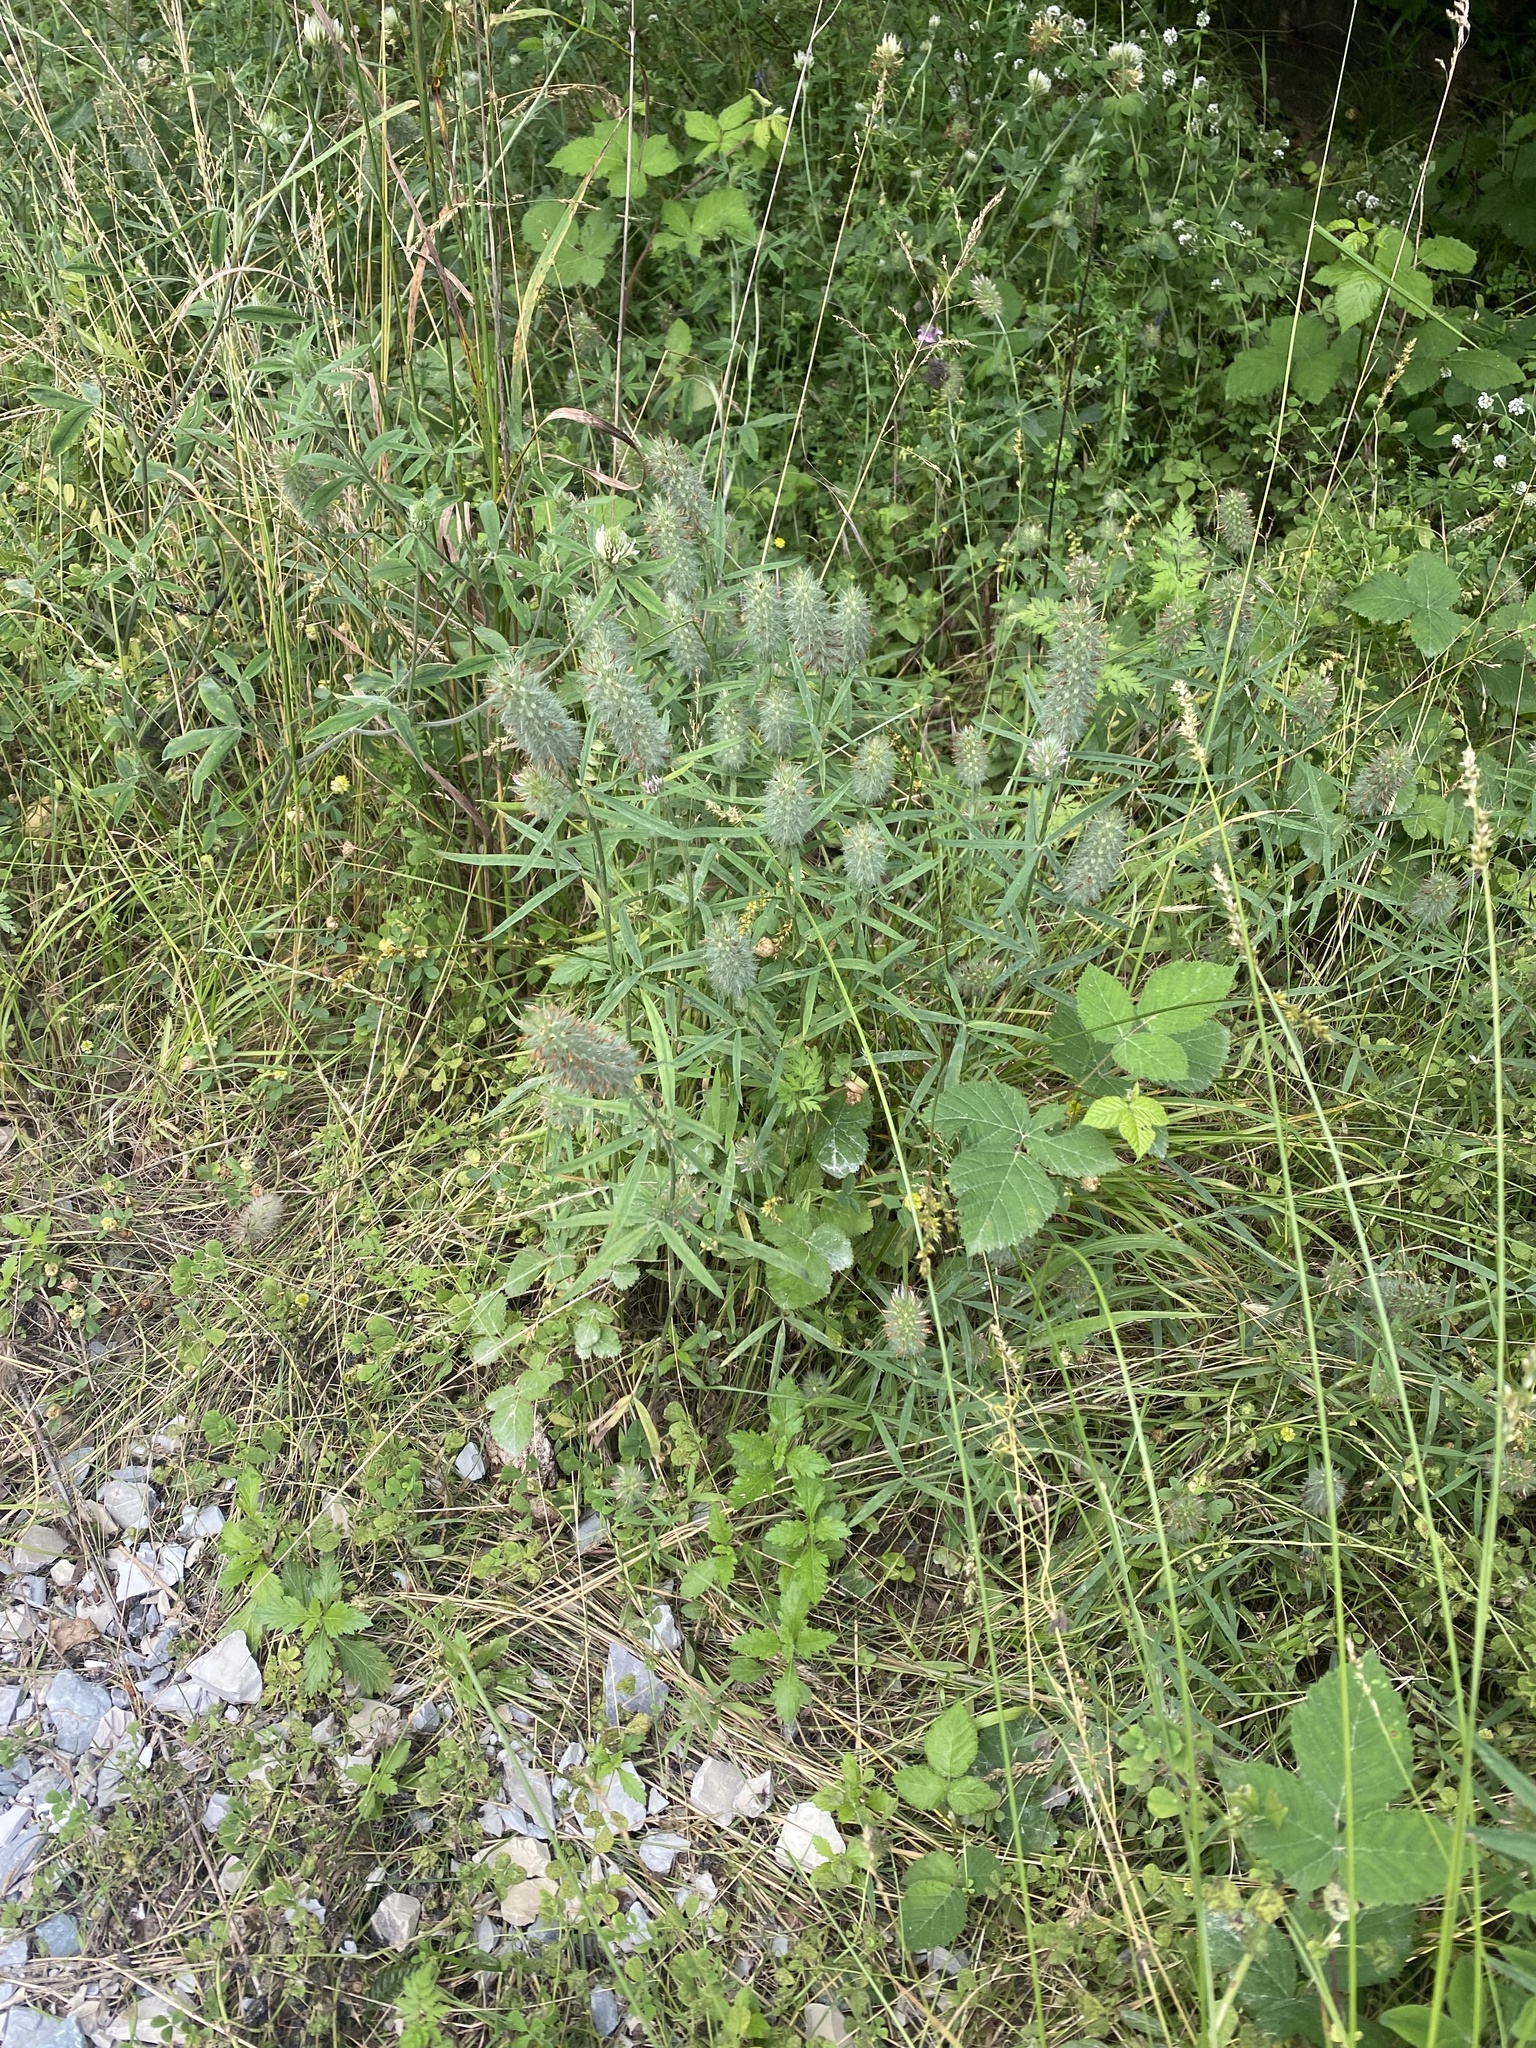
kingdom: Plantae
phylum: Tracheophyta
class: Magnoliopsida
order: Fabales
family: Fabaceae
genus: Trifolium
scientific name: Trifolium angustifolium
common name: Narrow clover
